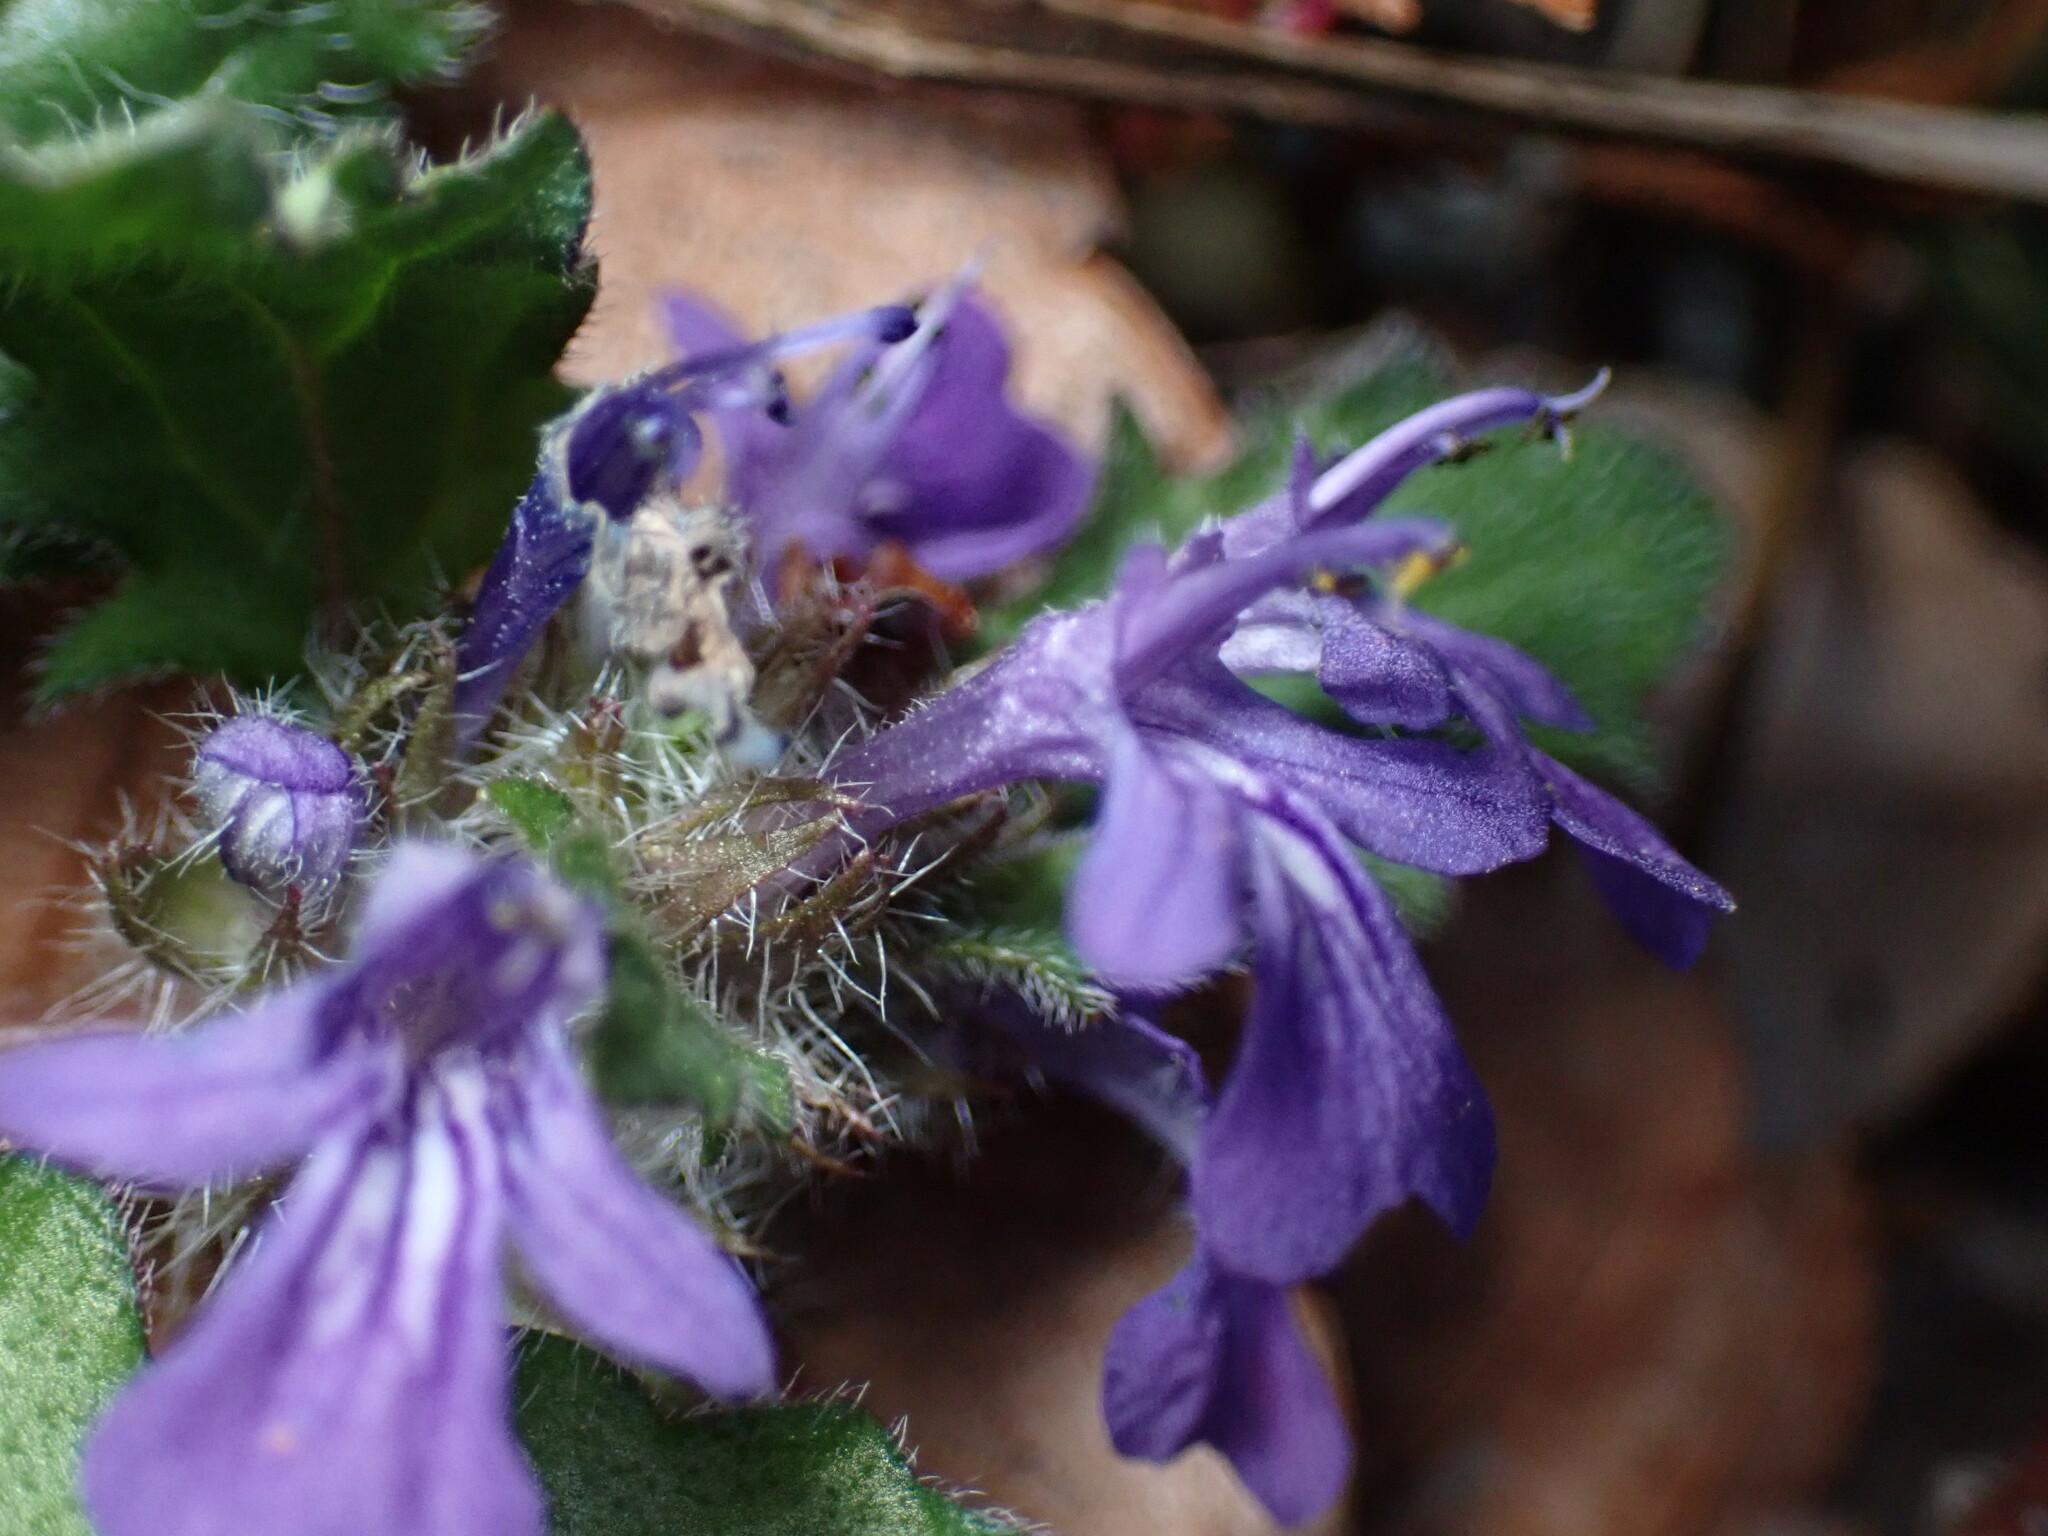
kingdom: Plantae
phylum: Tracheophyta
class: Magnoliopsida
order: Lamiales
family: Lamiaceae
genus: Ajuga
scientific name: Ajuga decumbens
